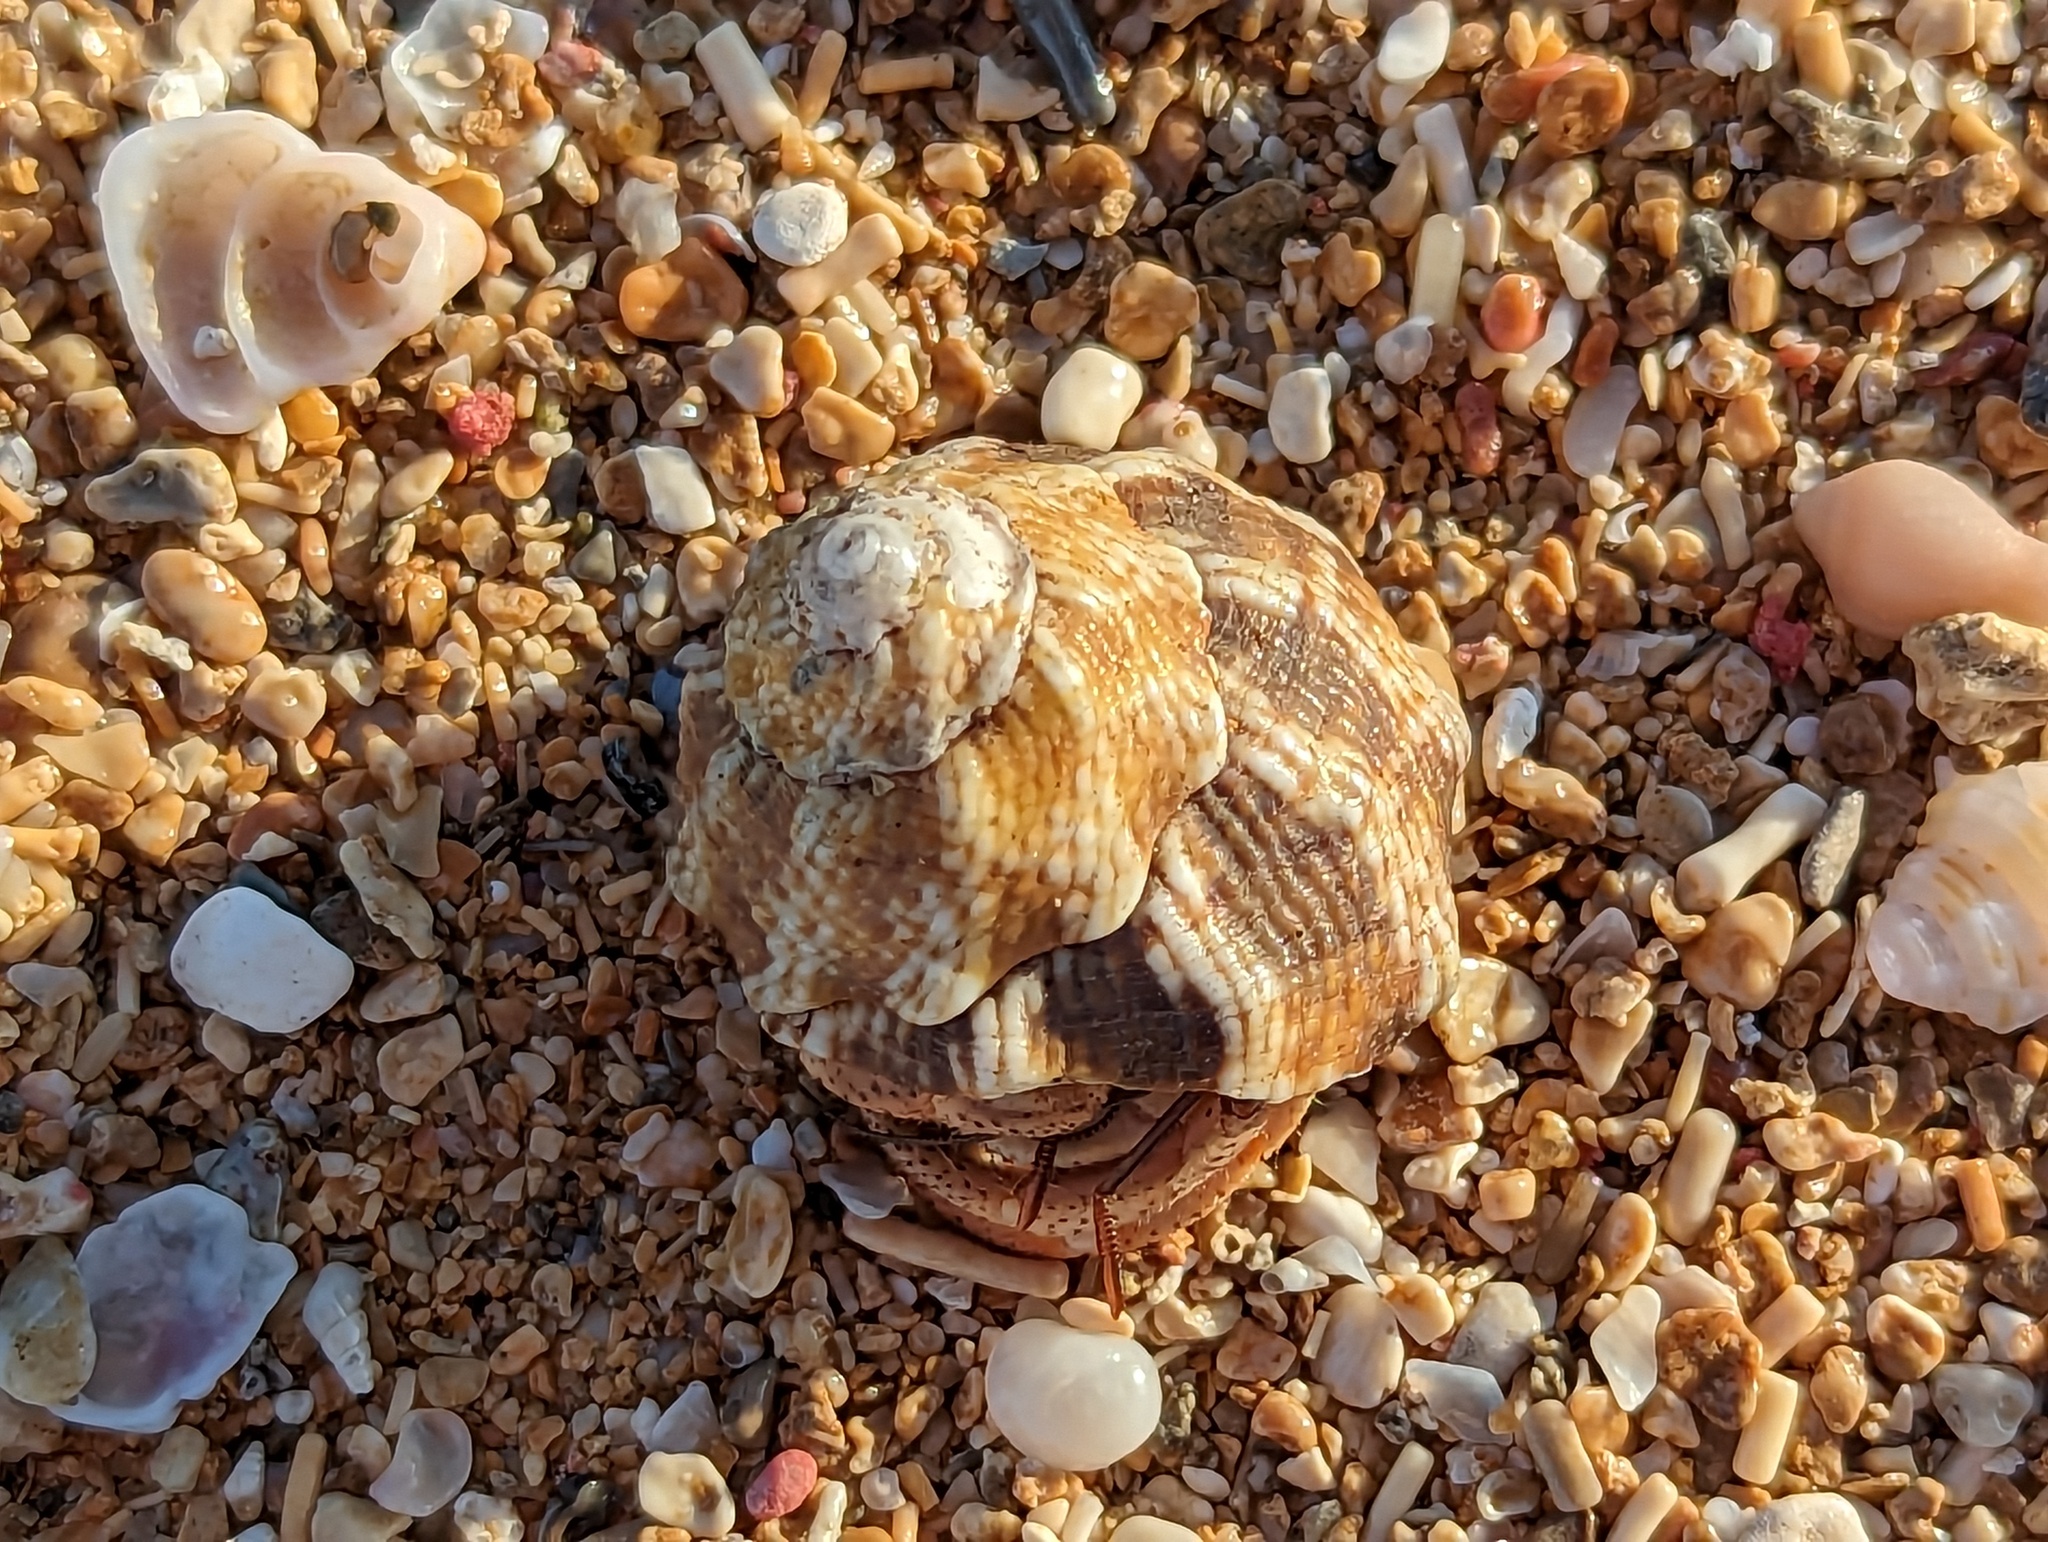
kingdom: Animalia
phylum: Mollusca
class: Gastropoda
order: Trochida
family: Turbinidae
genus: Lithopoma
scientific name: Lithopoma tuber
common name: Green starsnail
